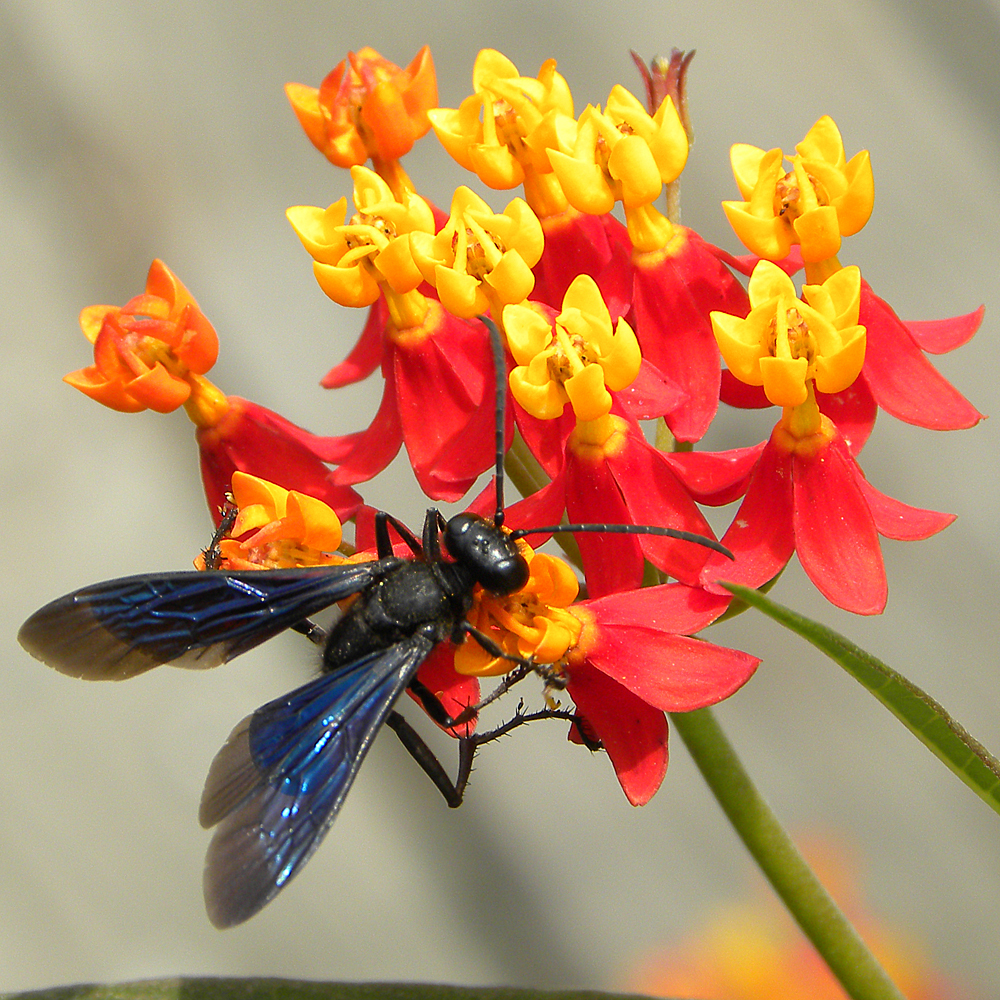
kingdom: Animalia
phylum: Arthropoda
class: Insecta
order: Hymenoptera
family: Sphecidae
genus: Sphex
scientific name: Sphex pensylvanicus
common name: Great black digger wasp
